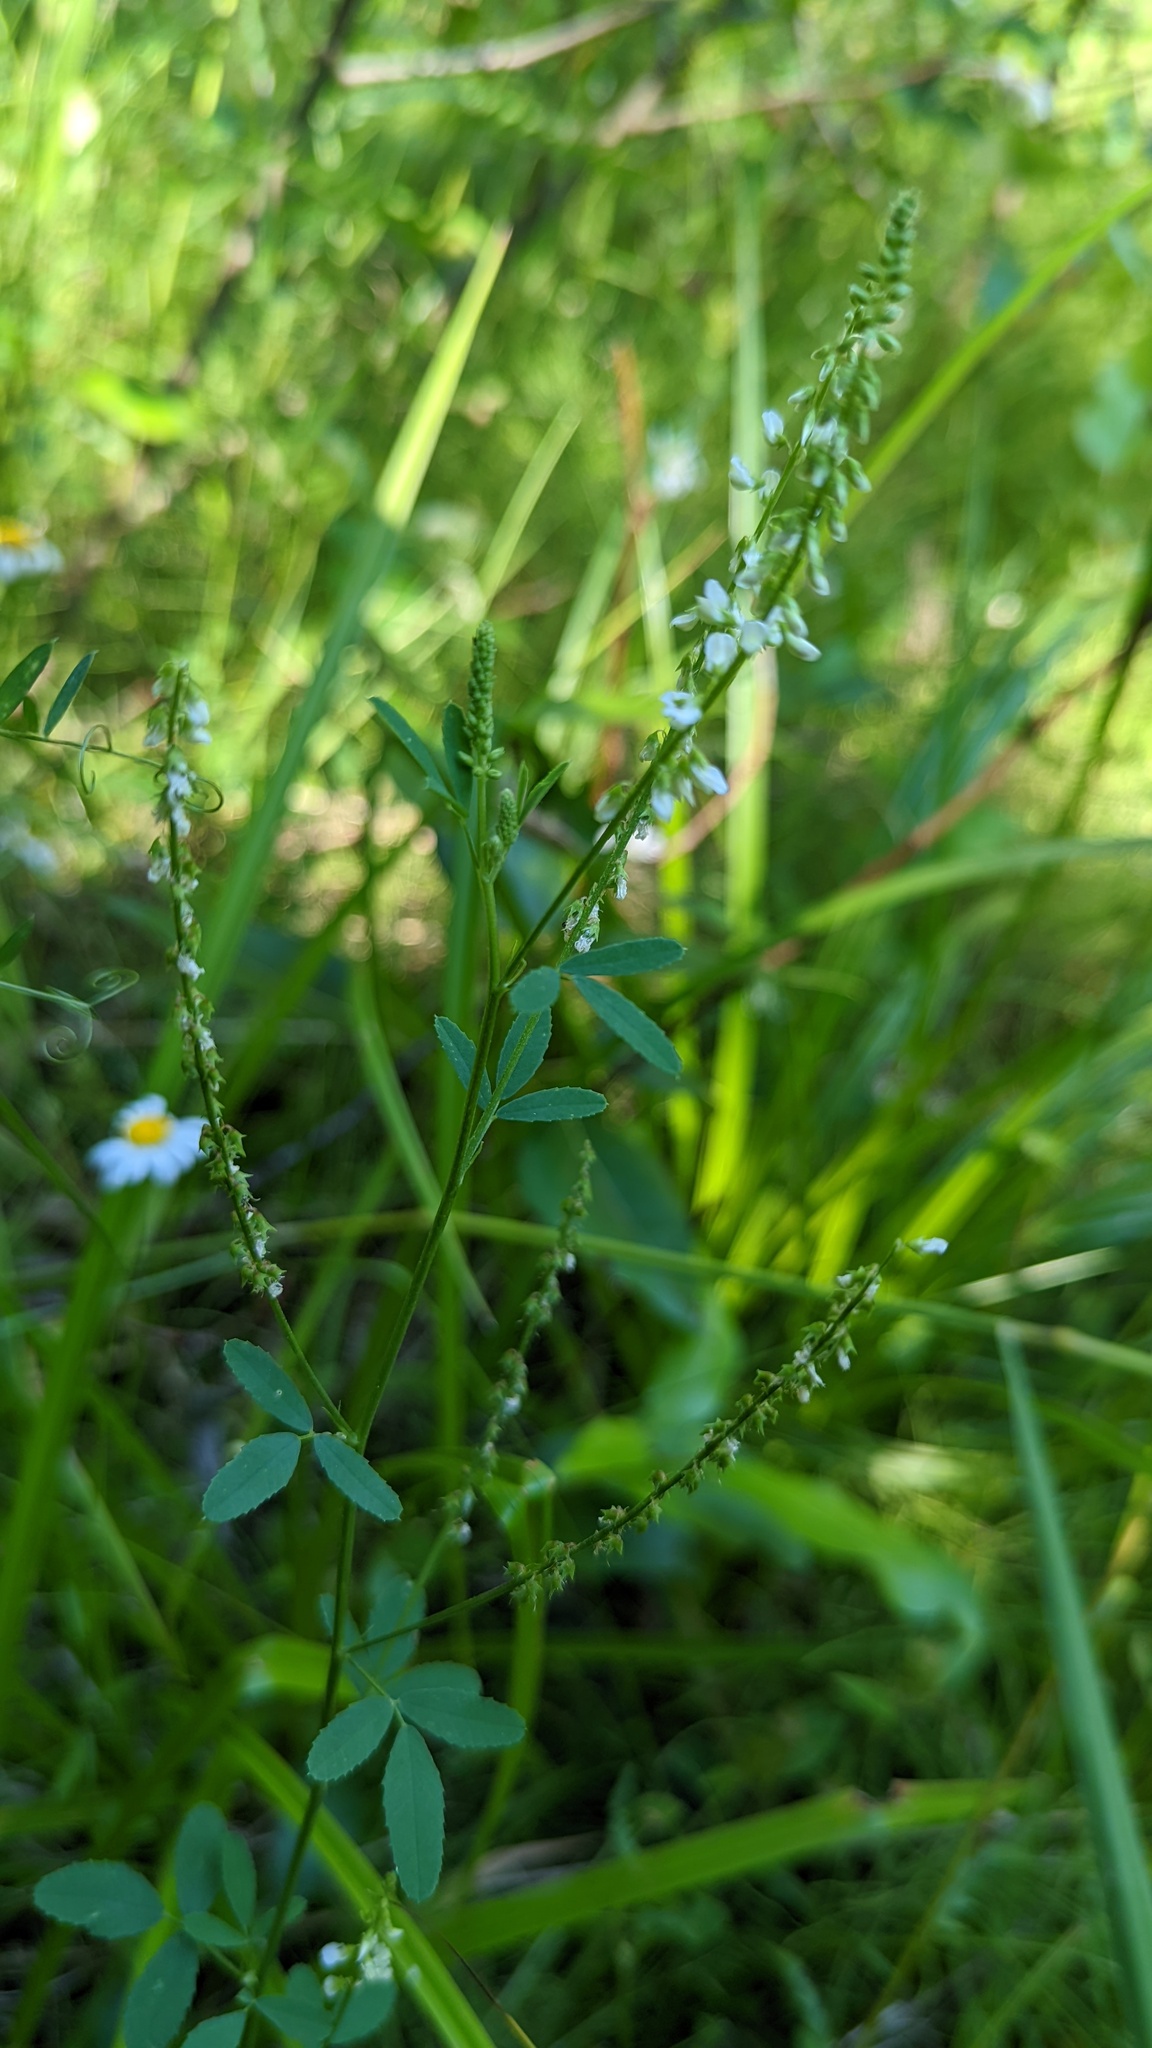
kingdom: Plantae
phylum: Tracheophyta
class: Magnoliopsida
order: Fabales
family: Fabaceae
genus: Melilotus
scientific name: Melilotus albus
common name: White melilot
